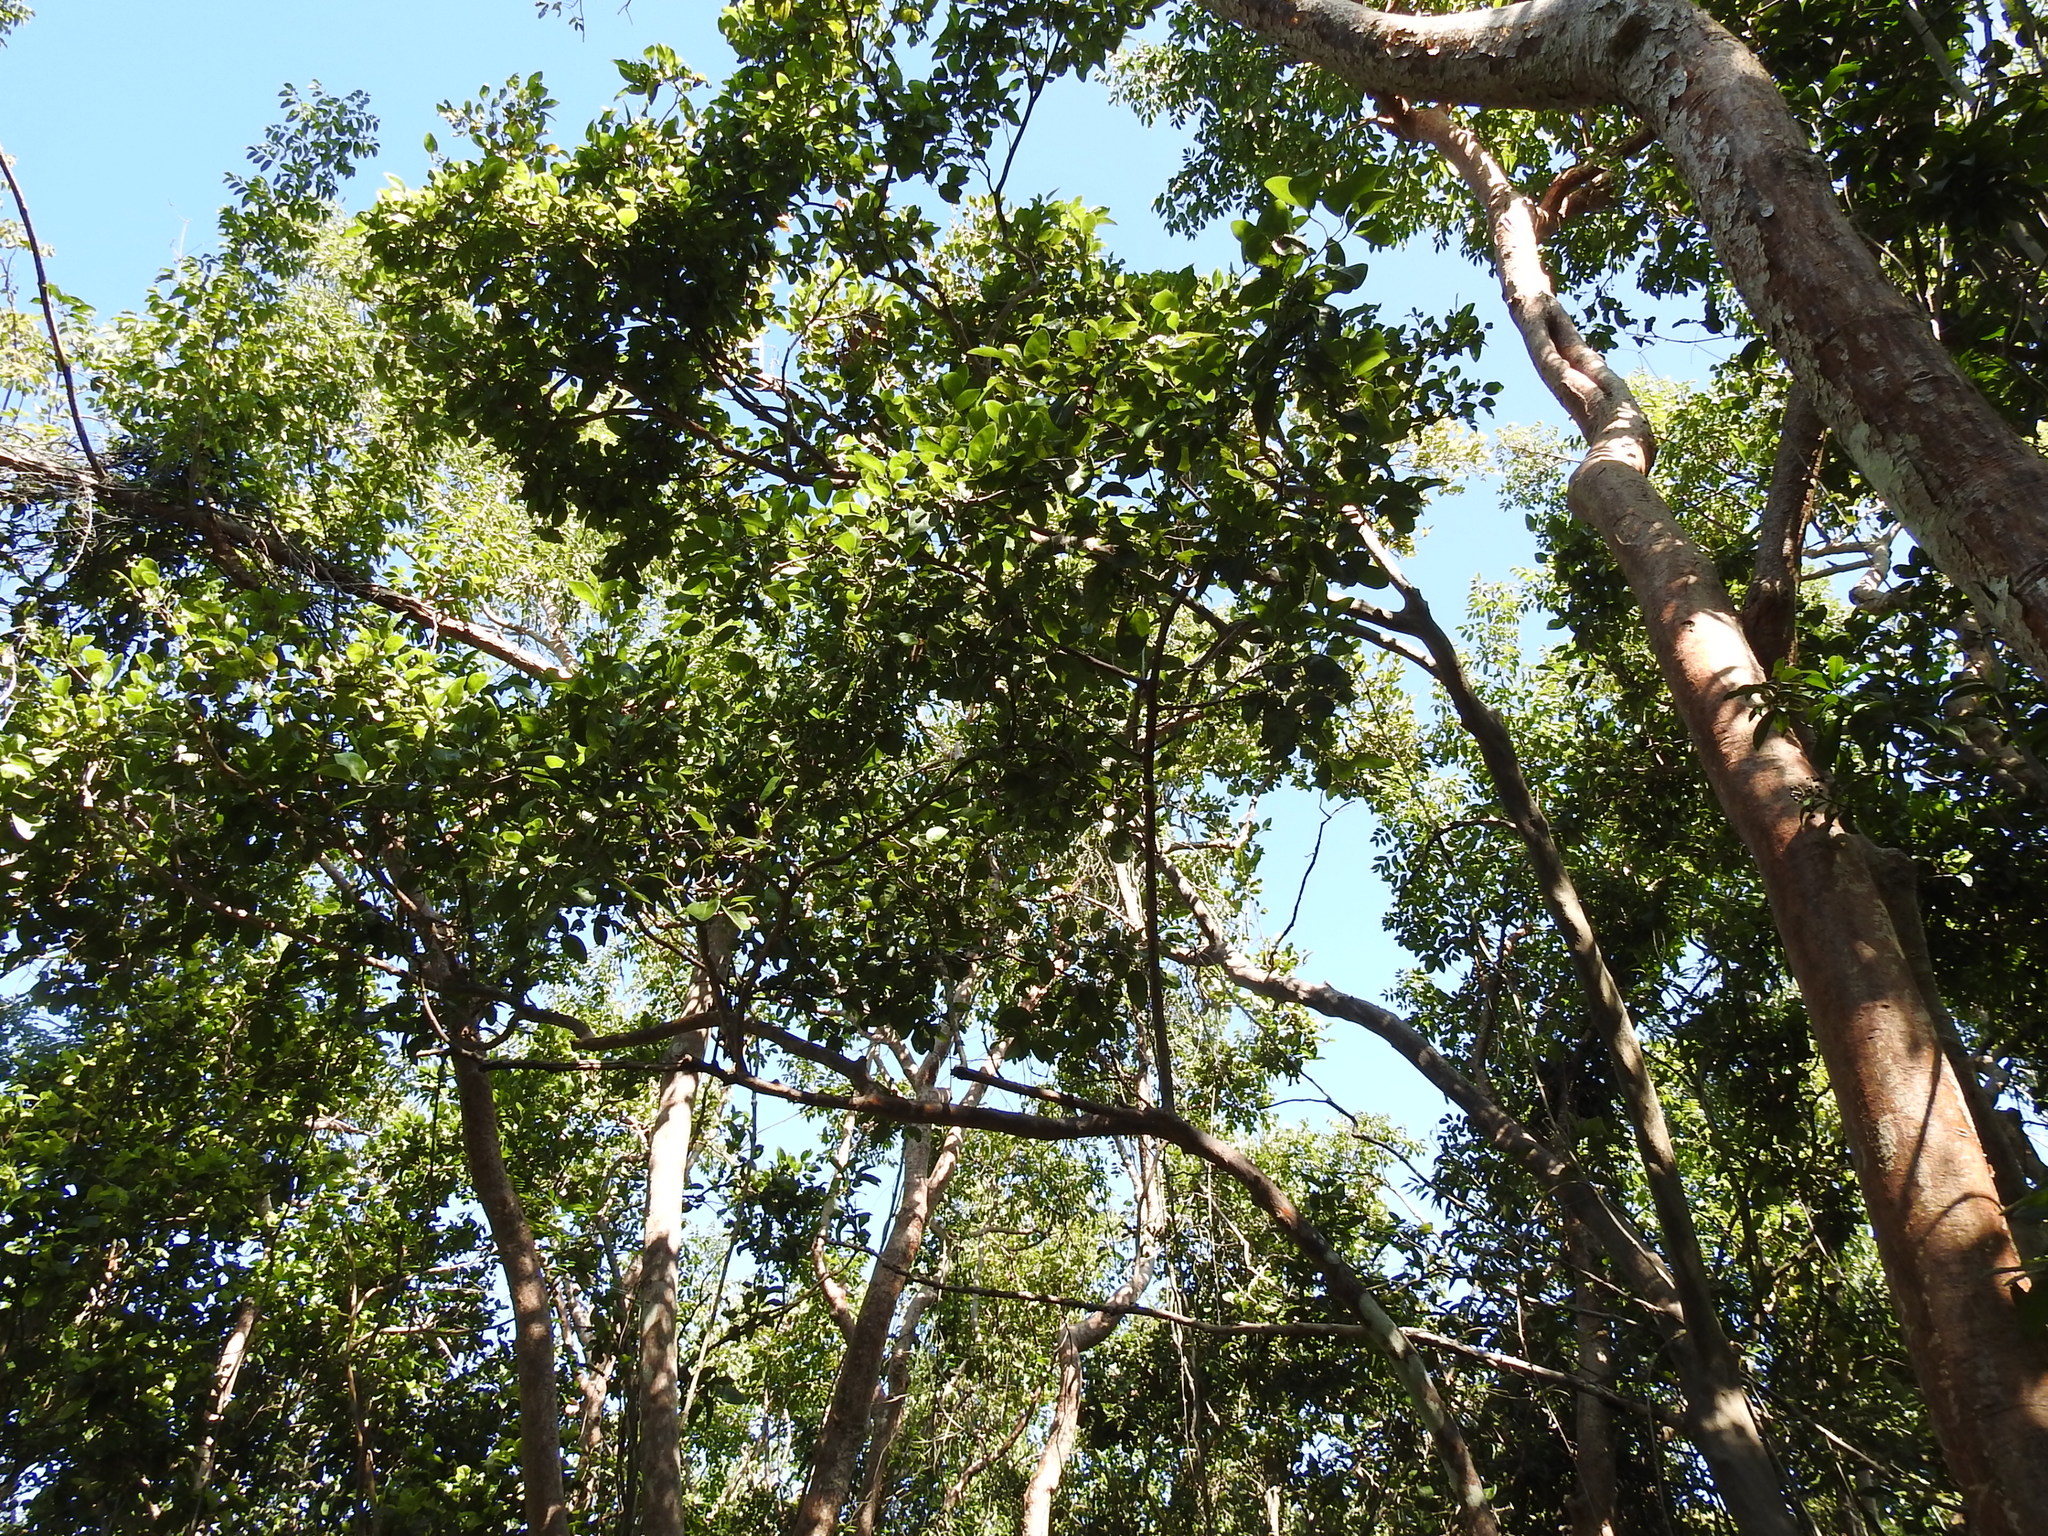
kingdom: Plantae
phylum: Tracheophyta
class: Magnoliopsida
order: Sapindales
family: Burseraceae
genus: Bursera
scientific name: Bursera simaruba
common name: Turpentine tree
